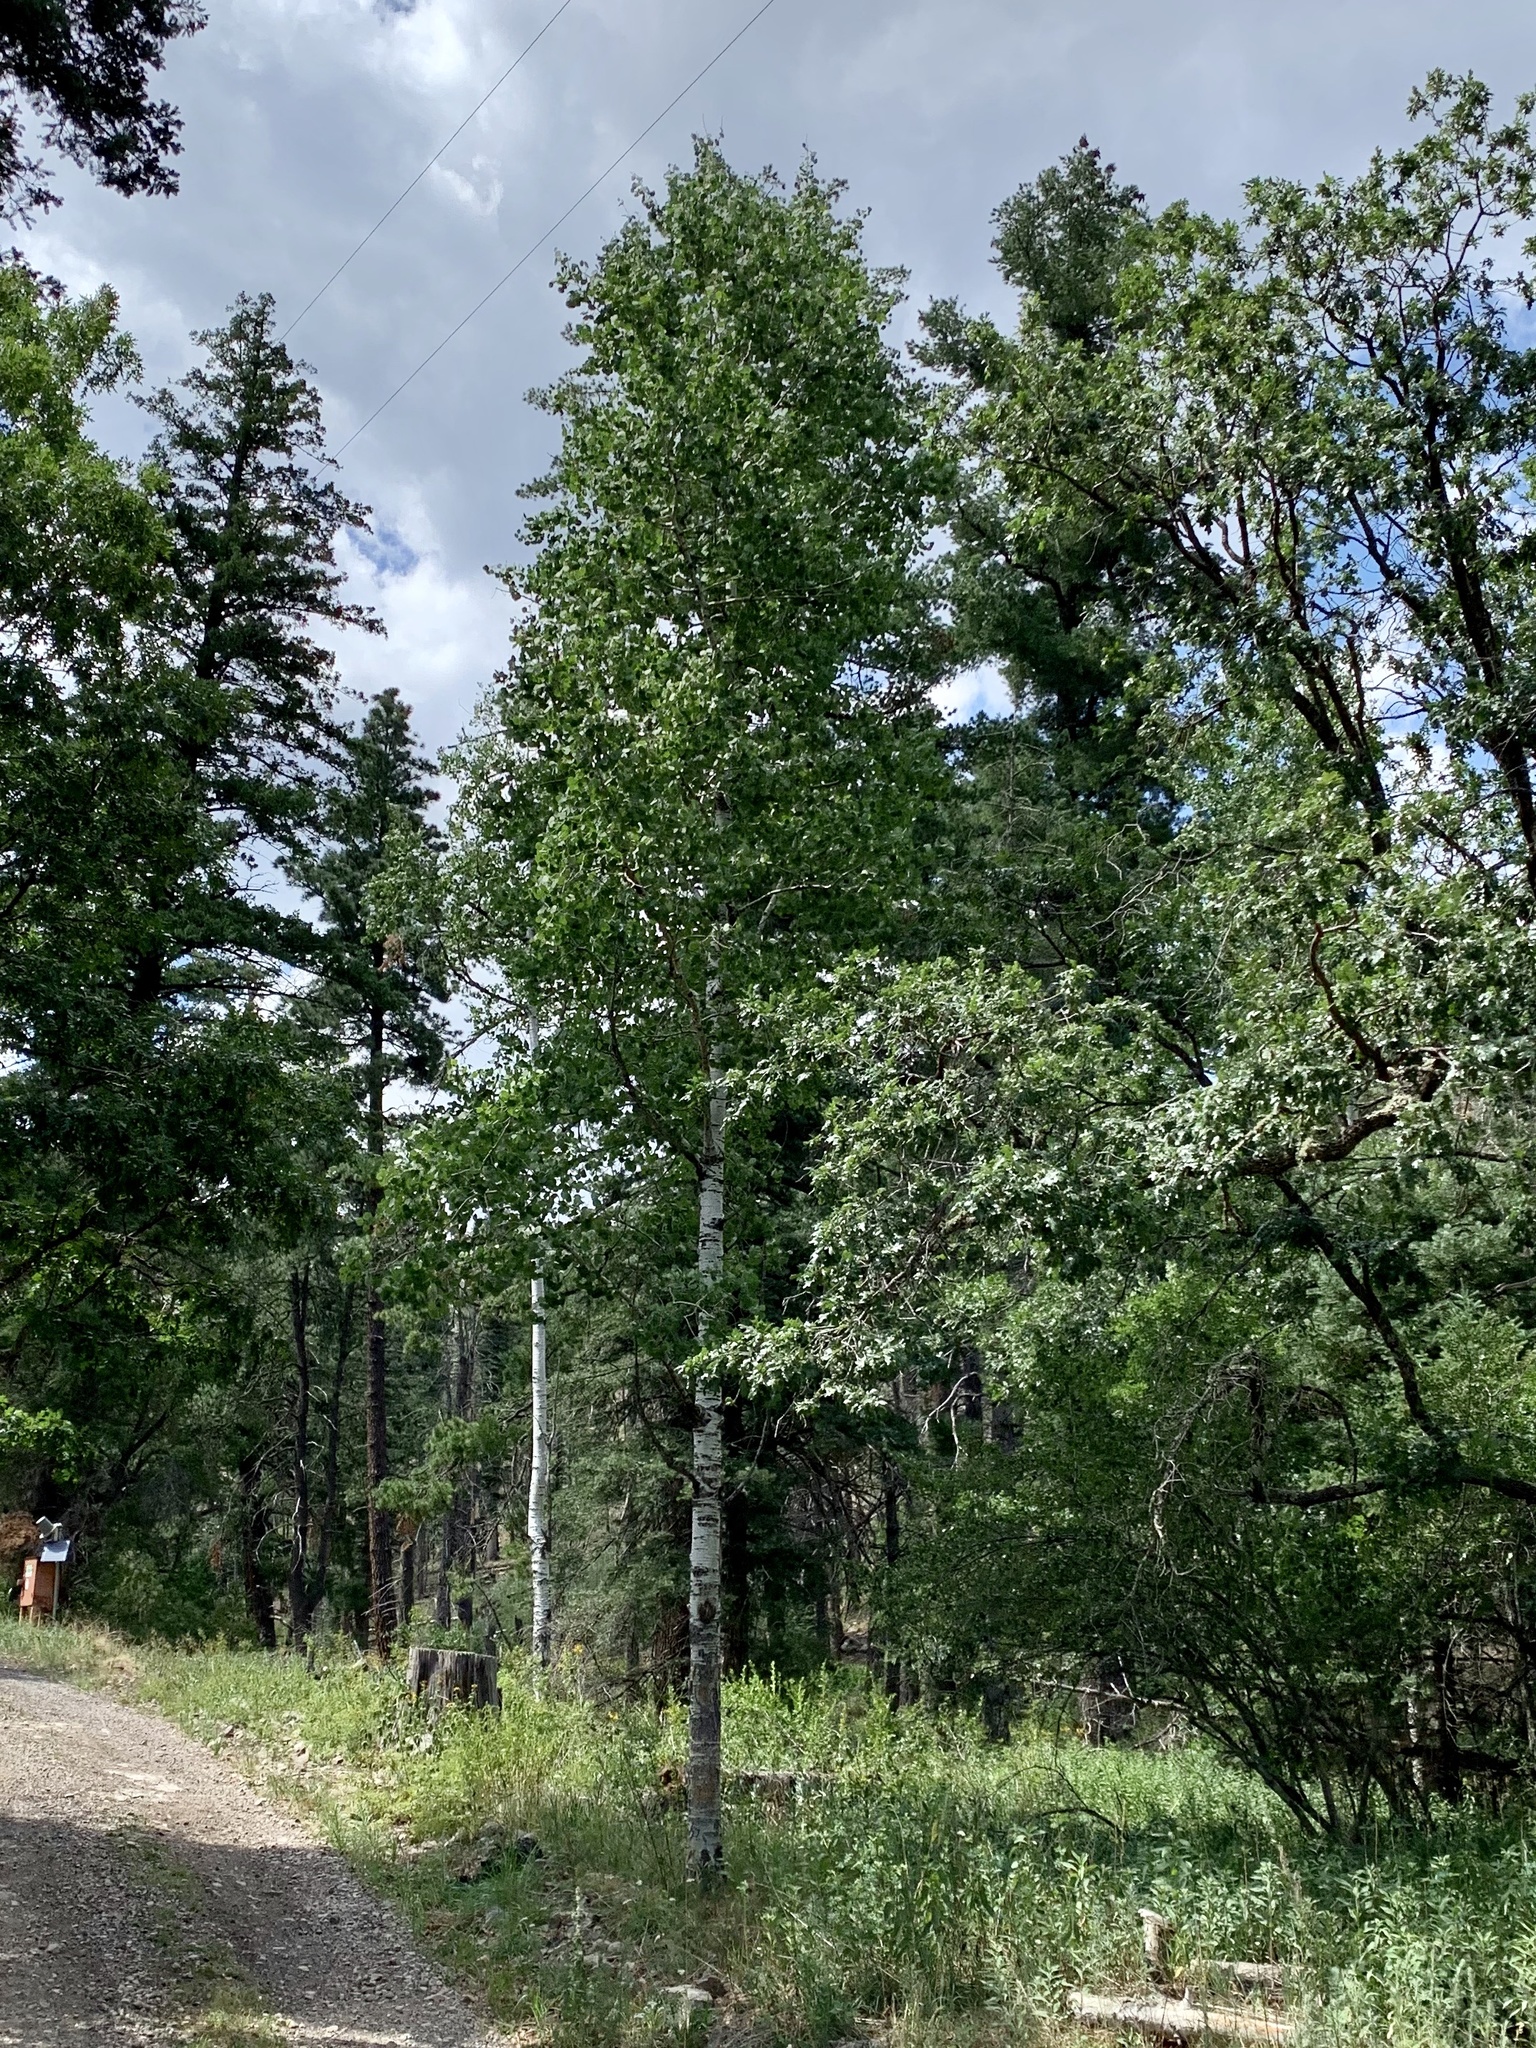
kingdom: Plantae
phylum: Tracheophyta
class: Magnoliopsida
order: Malpighiales
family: Salicaceae
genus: Populus
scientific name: Populus tremuloides
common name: Quaking aspen
